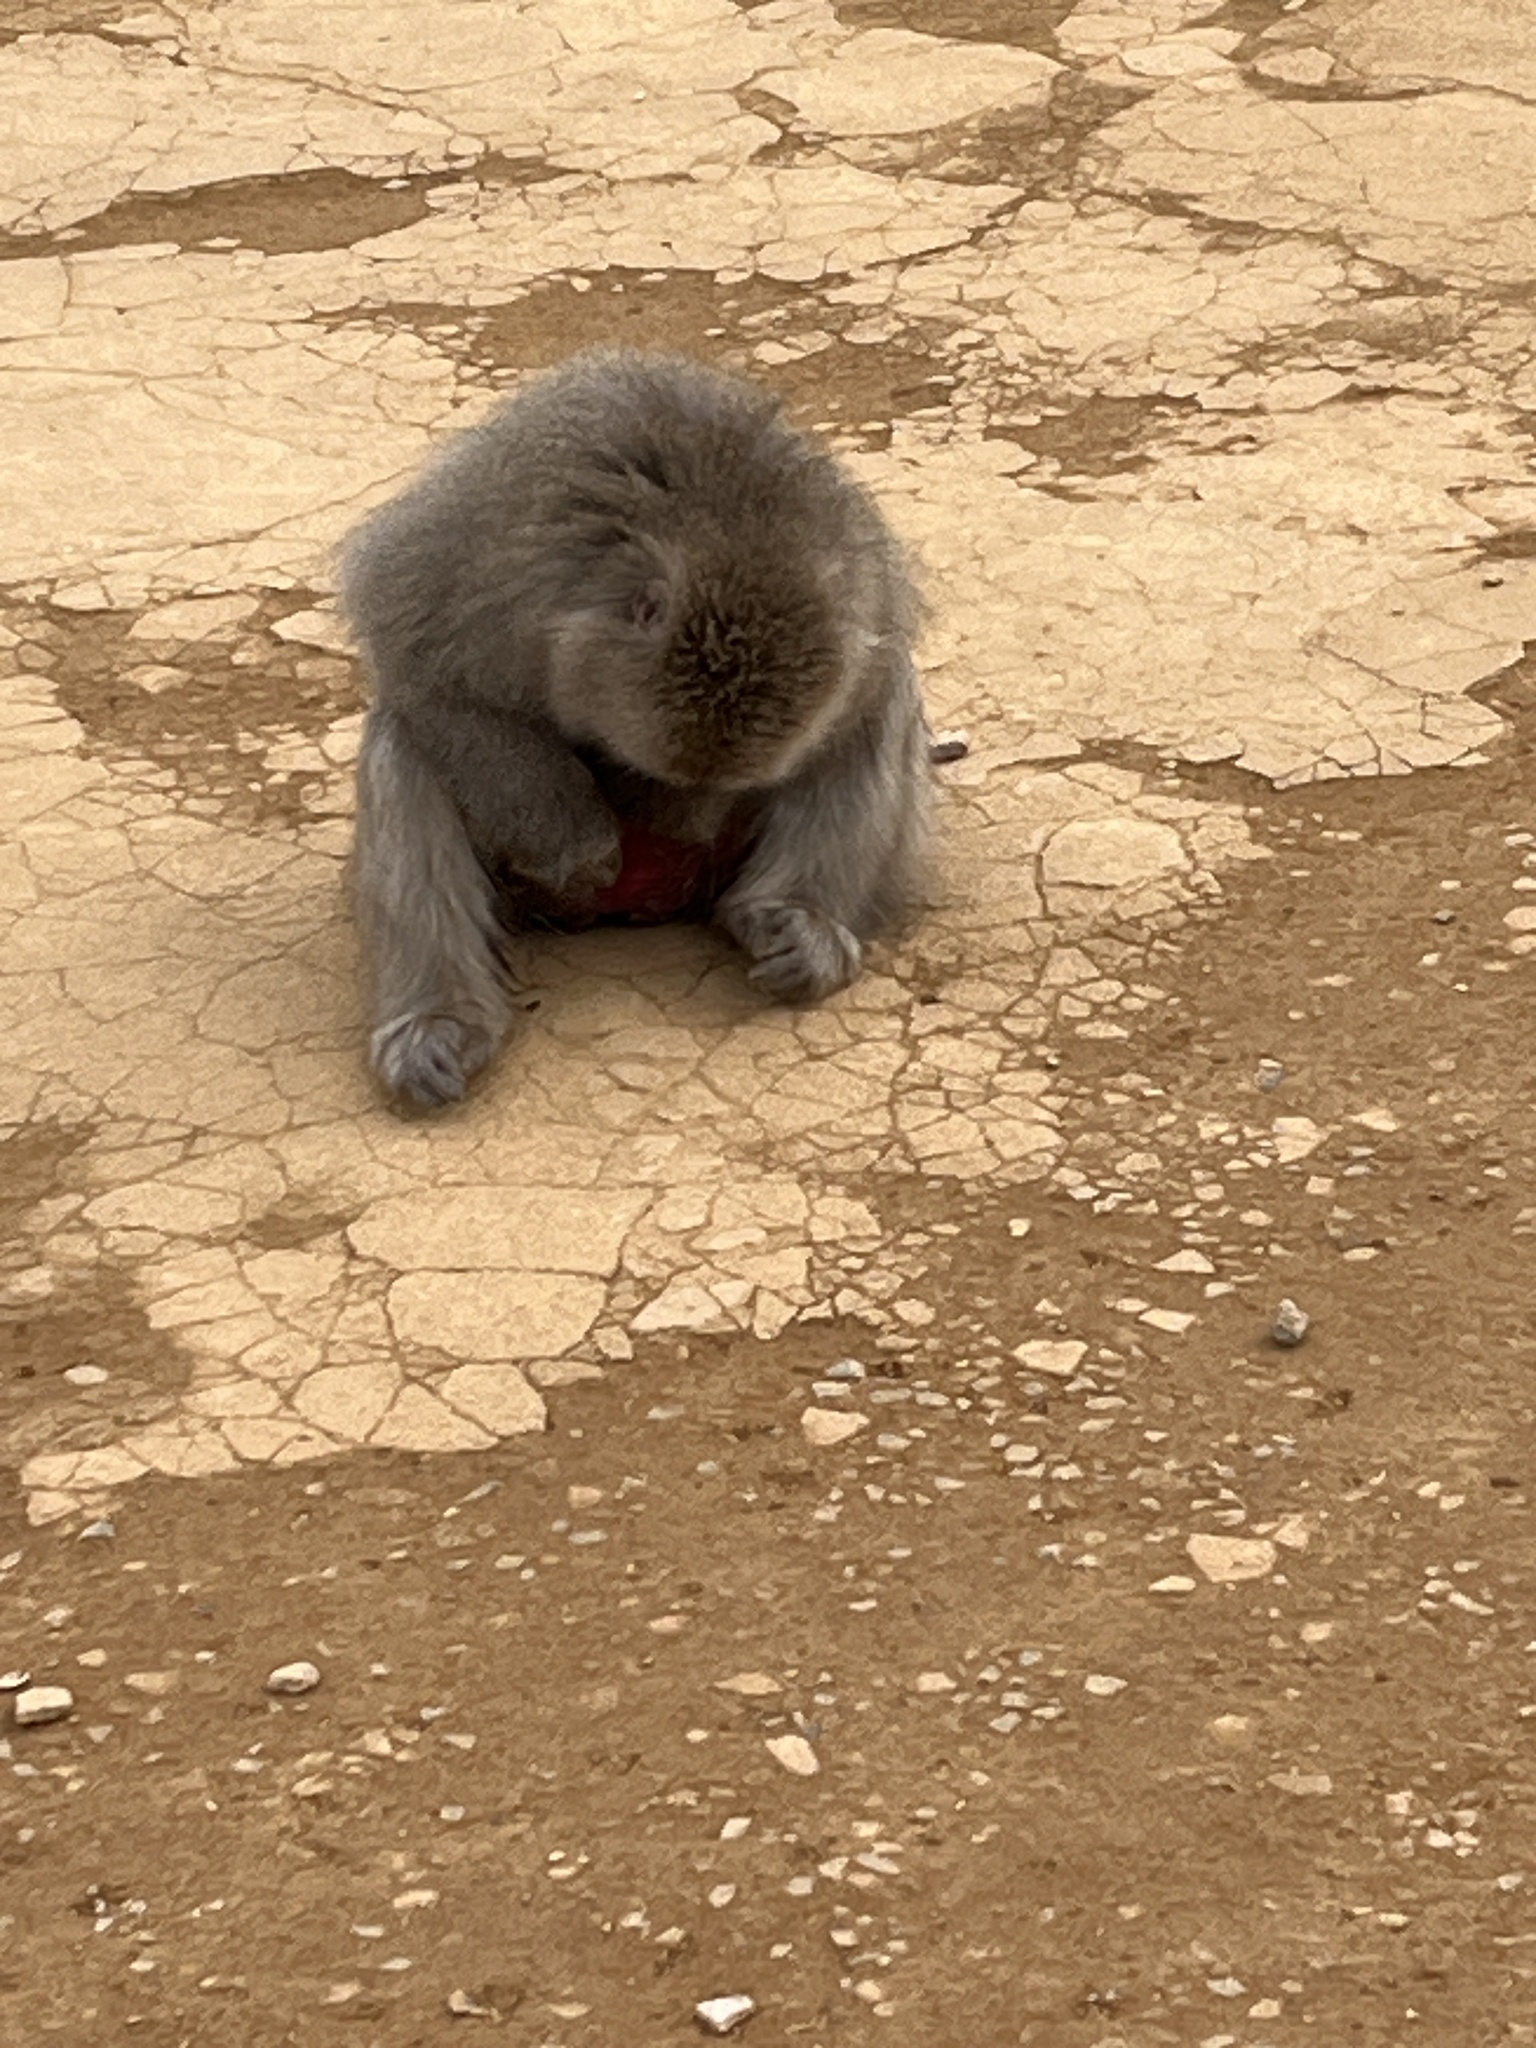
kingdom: Animalia
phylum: Chordata
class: Mammalia
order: Primates
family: Cercopithecidae
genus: Macaca
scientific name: Macaca fuscata
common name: Japanese macaque
